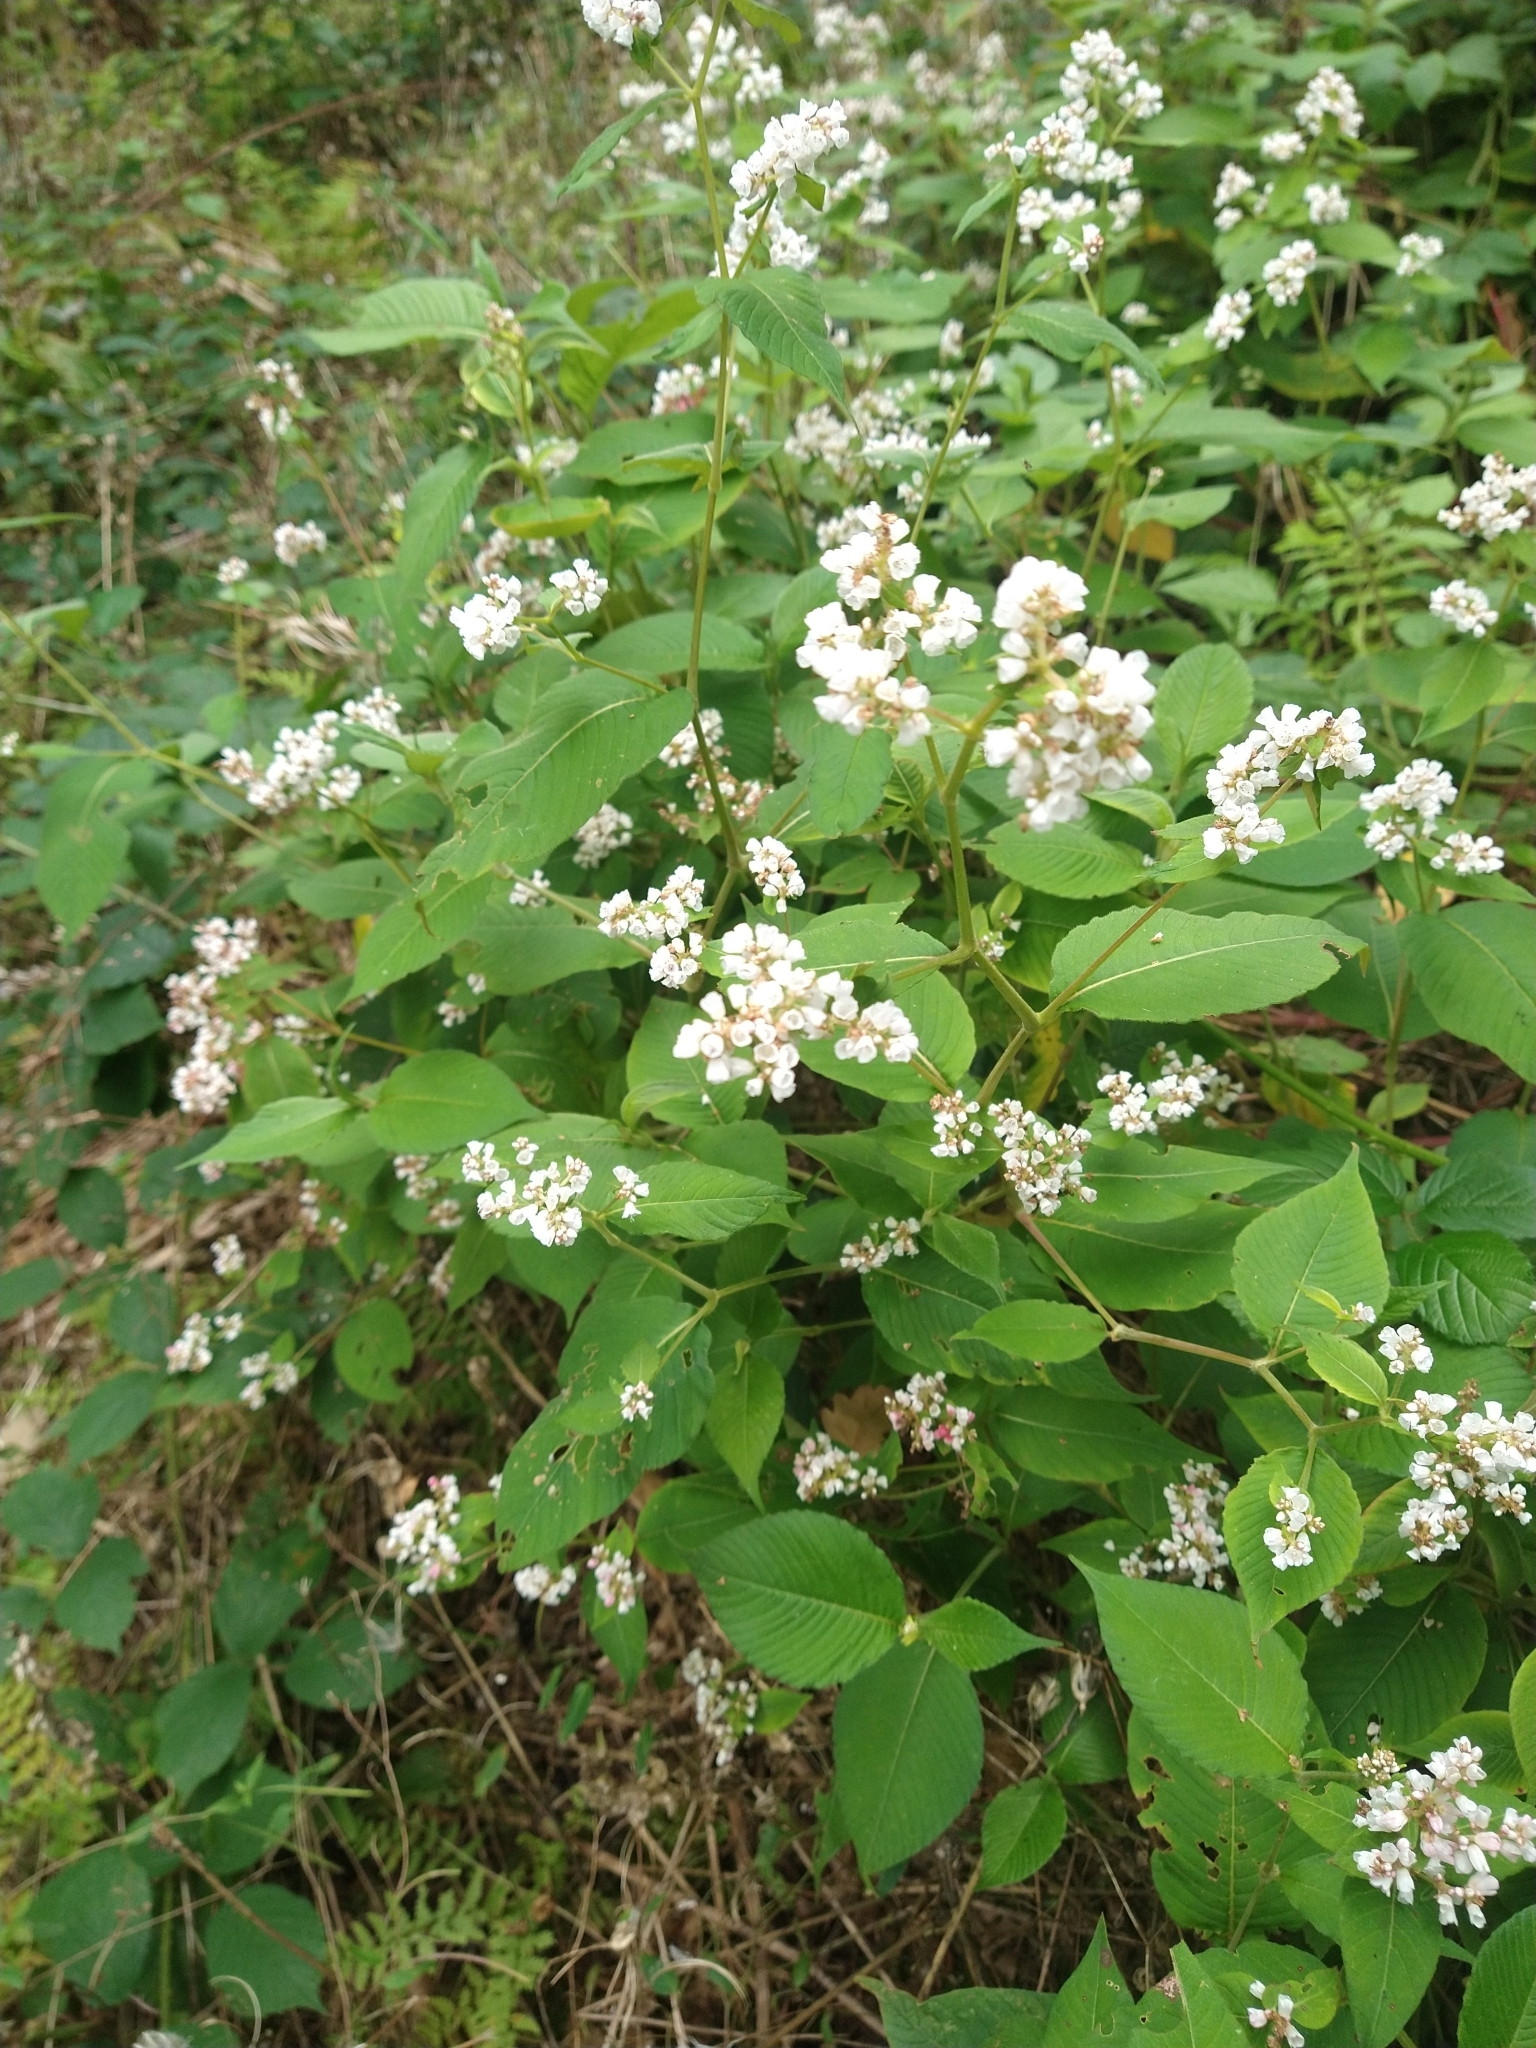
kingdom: Plantae
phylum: Tracheophyta
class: Magnoliopsida
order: Caryophyllales
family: Polygonaceae
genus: Koenigia
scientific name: Koenigia campanulata
